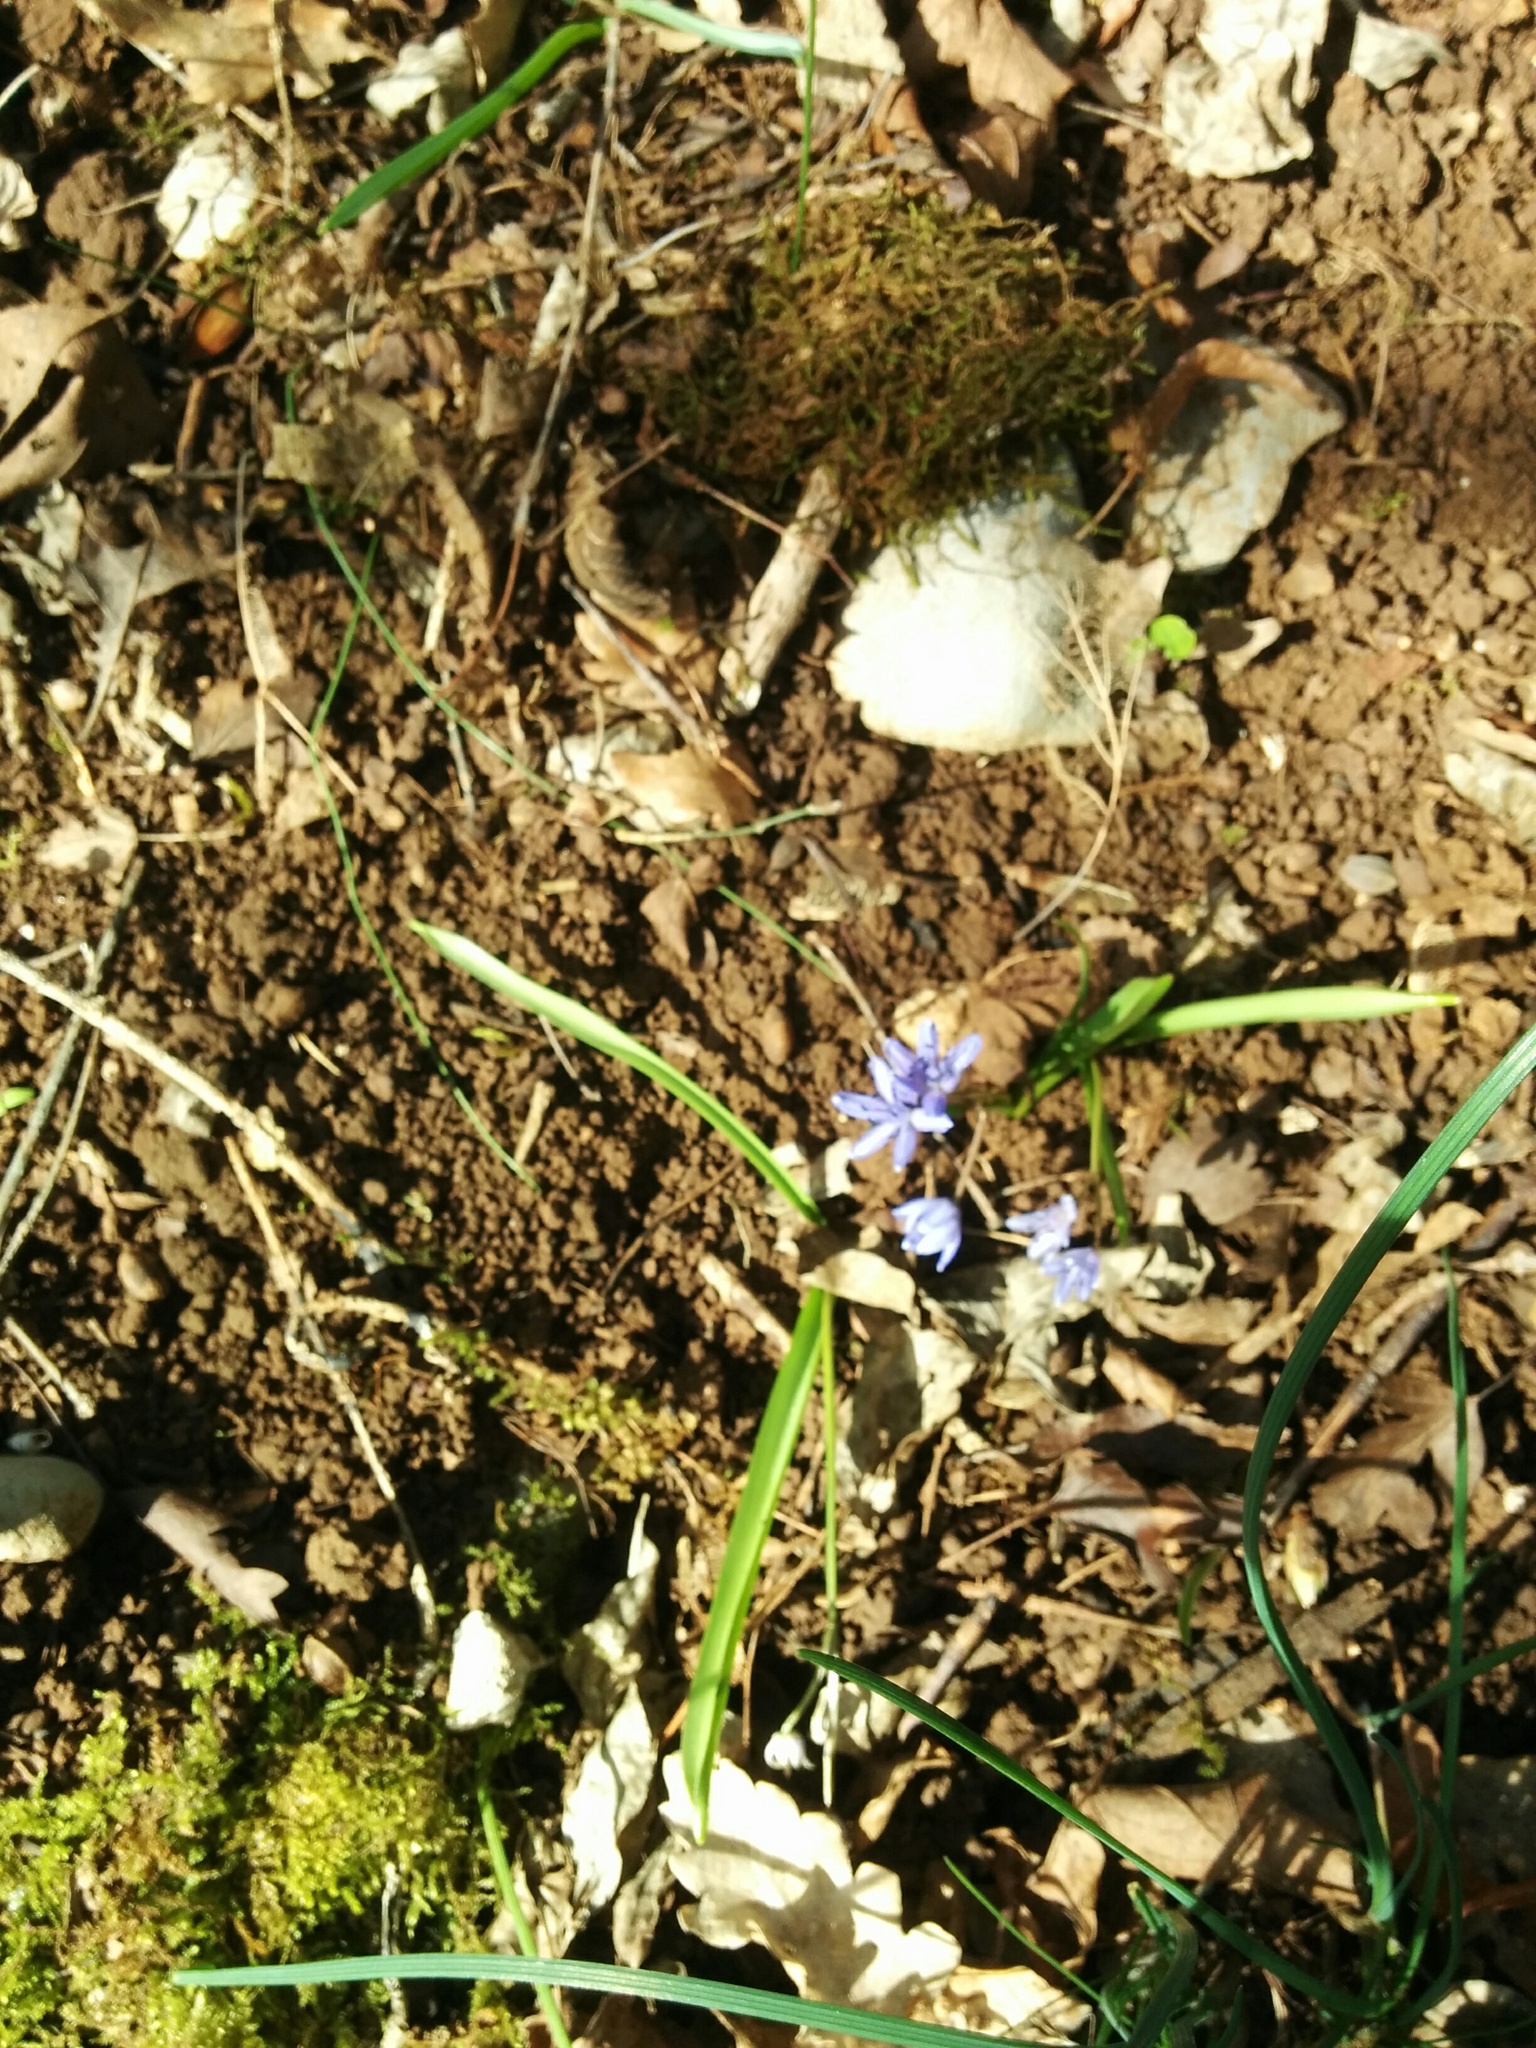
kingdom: Plantae
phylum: Tracheophyta
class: Liliopsida
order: Asparagales
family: Asparagaceae
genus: Scilla
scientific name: Scilla bifolia
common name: Alpine squill
